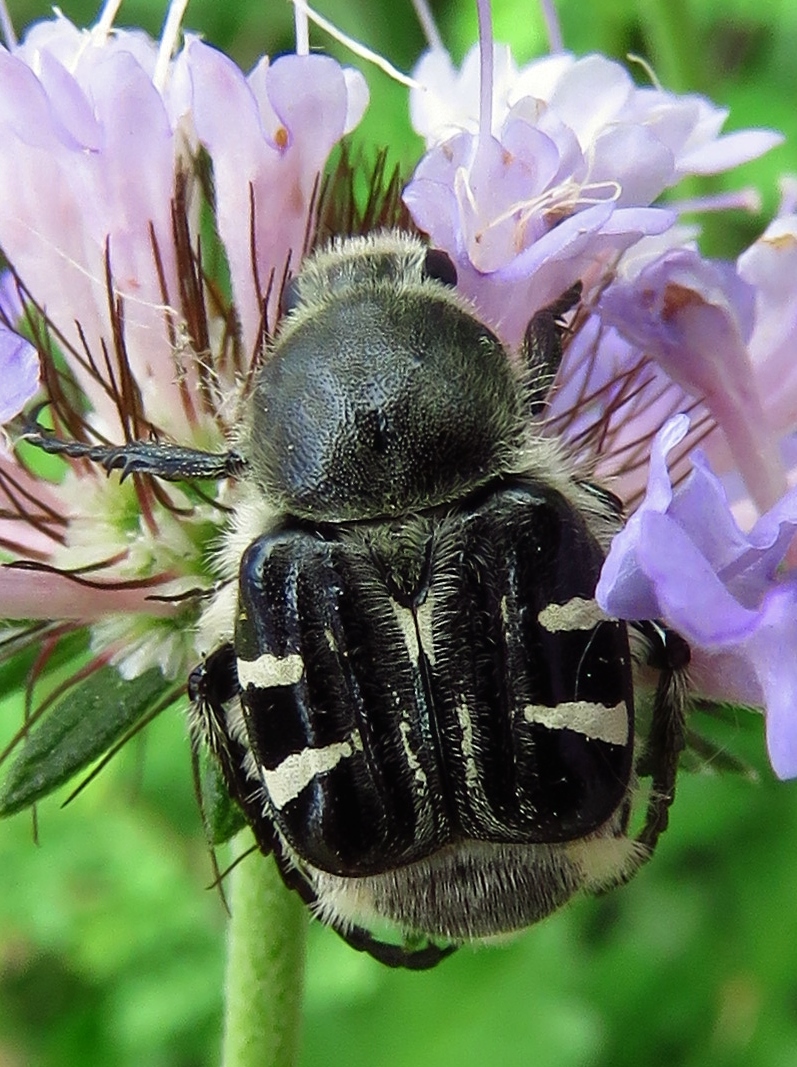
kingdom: Animalia
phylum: Arthropoda
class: Insecta
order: Coleoptera
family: Scarabaeidae
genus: Trichiotinus
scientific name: Trichiotinus texanus
